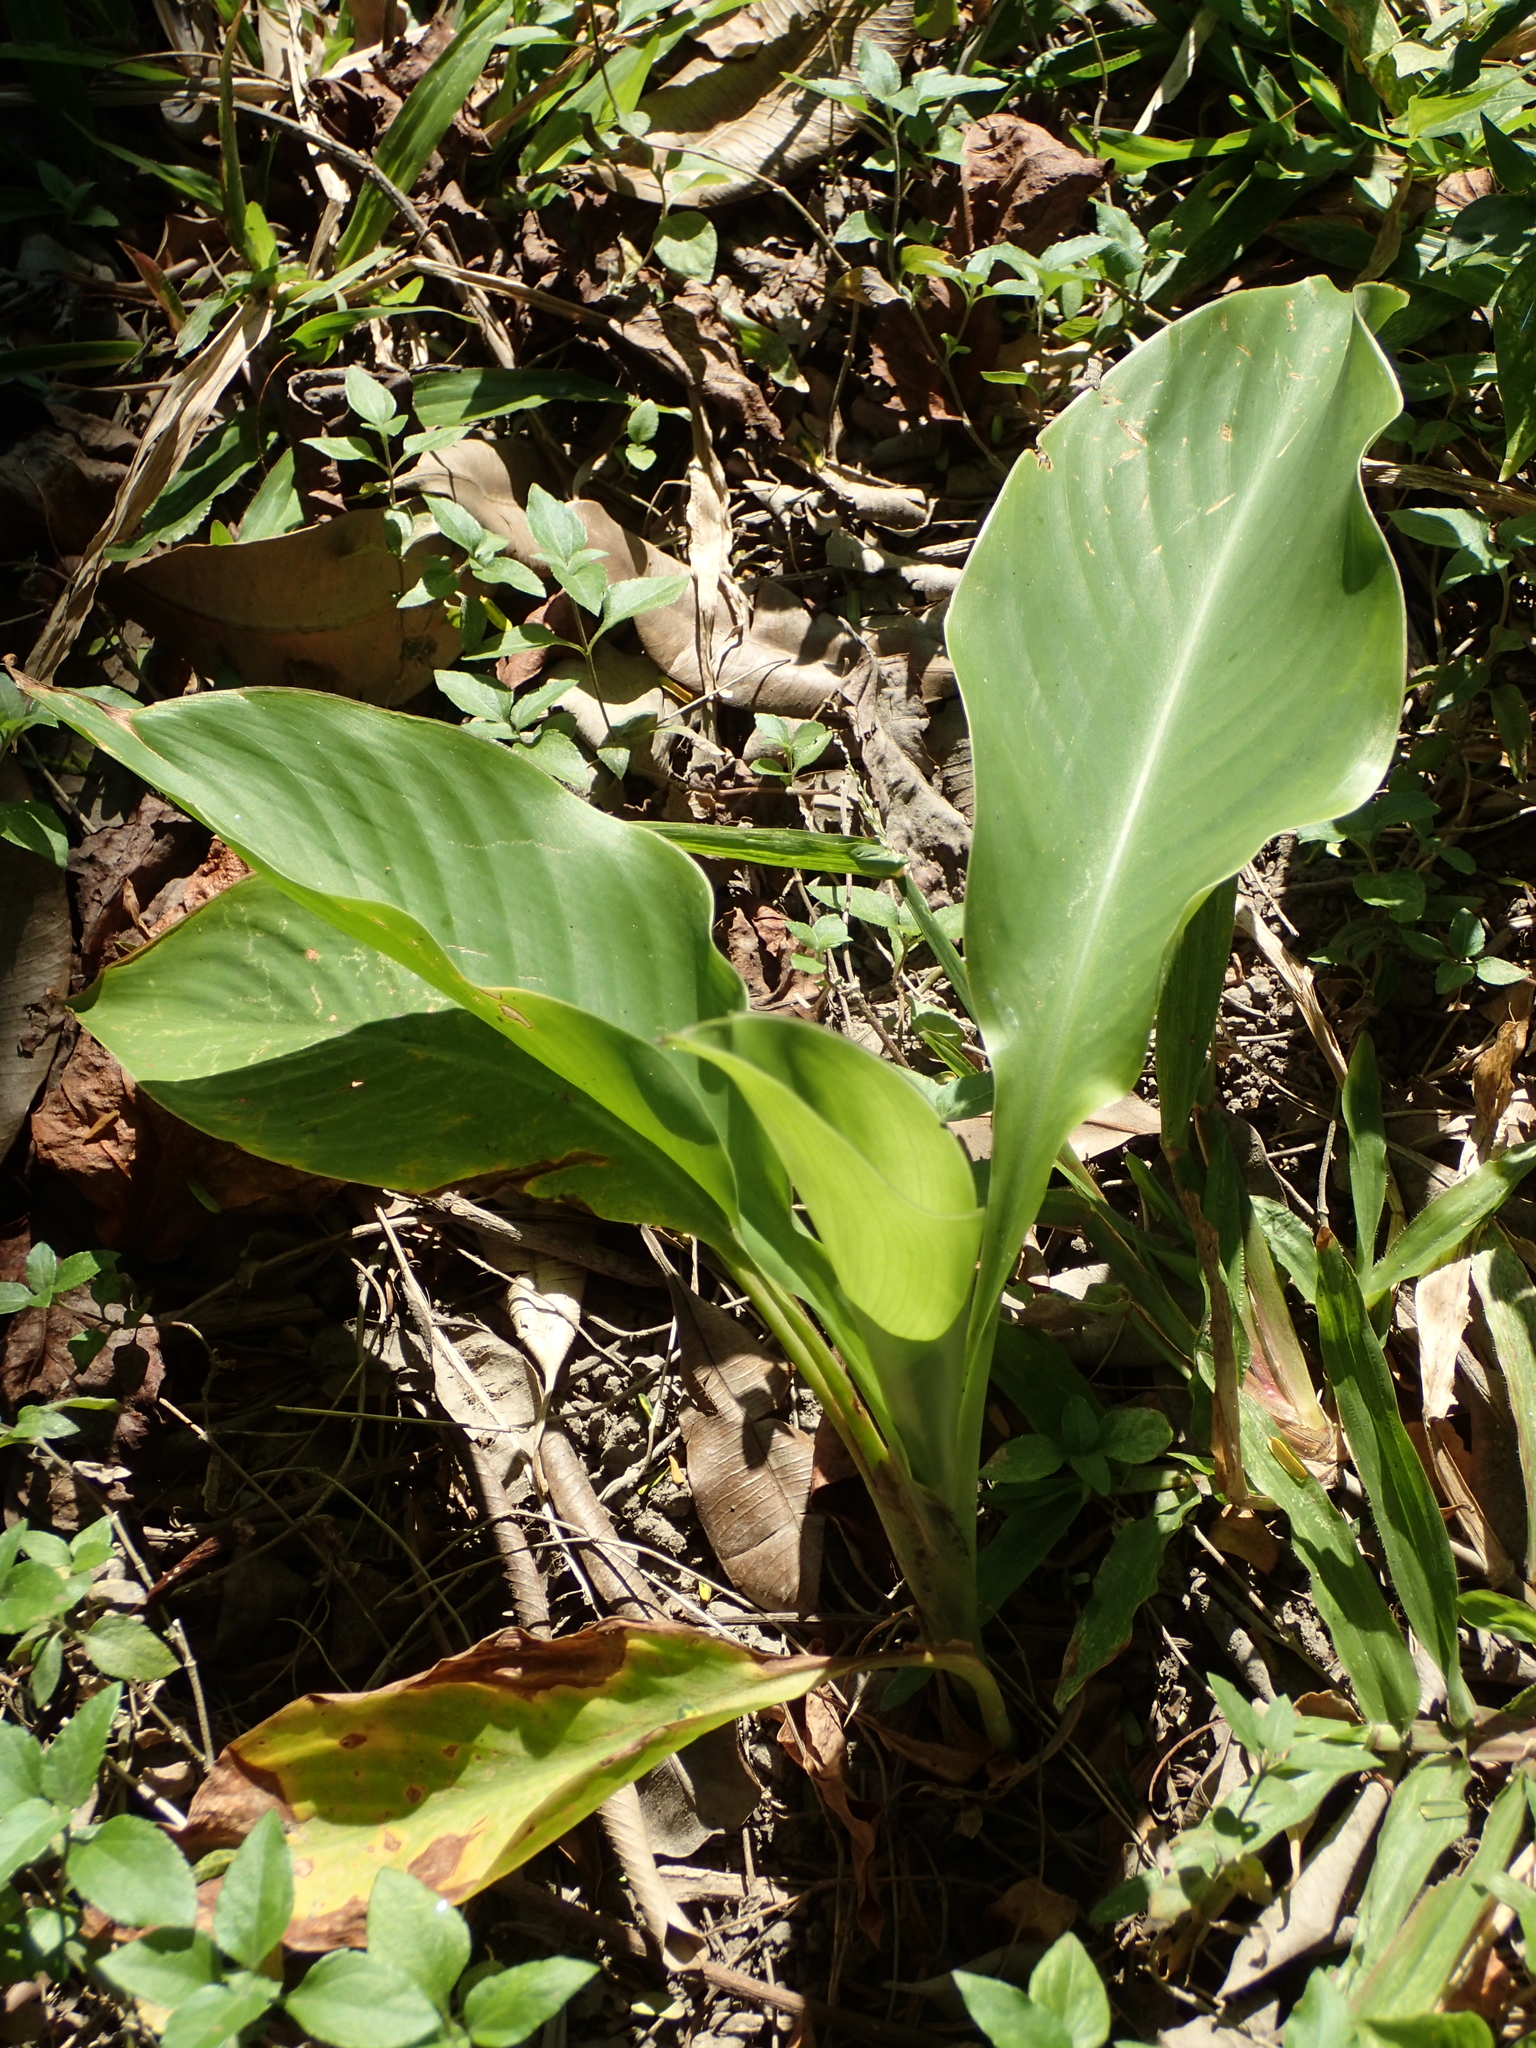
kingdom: Plantae
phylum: Tracheophyta
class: Liliopsida
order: Zingiberales
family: Cannaceae
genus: Canna
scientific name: Canna indica
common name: Indian shot
